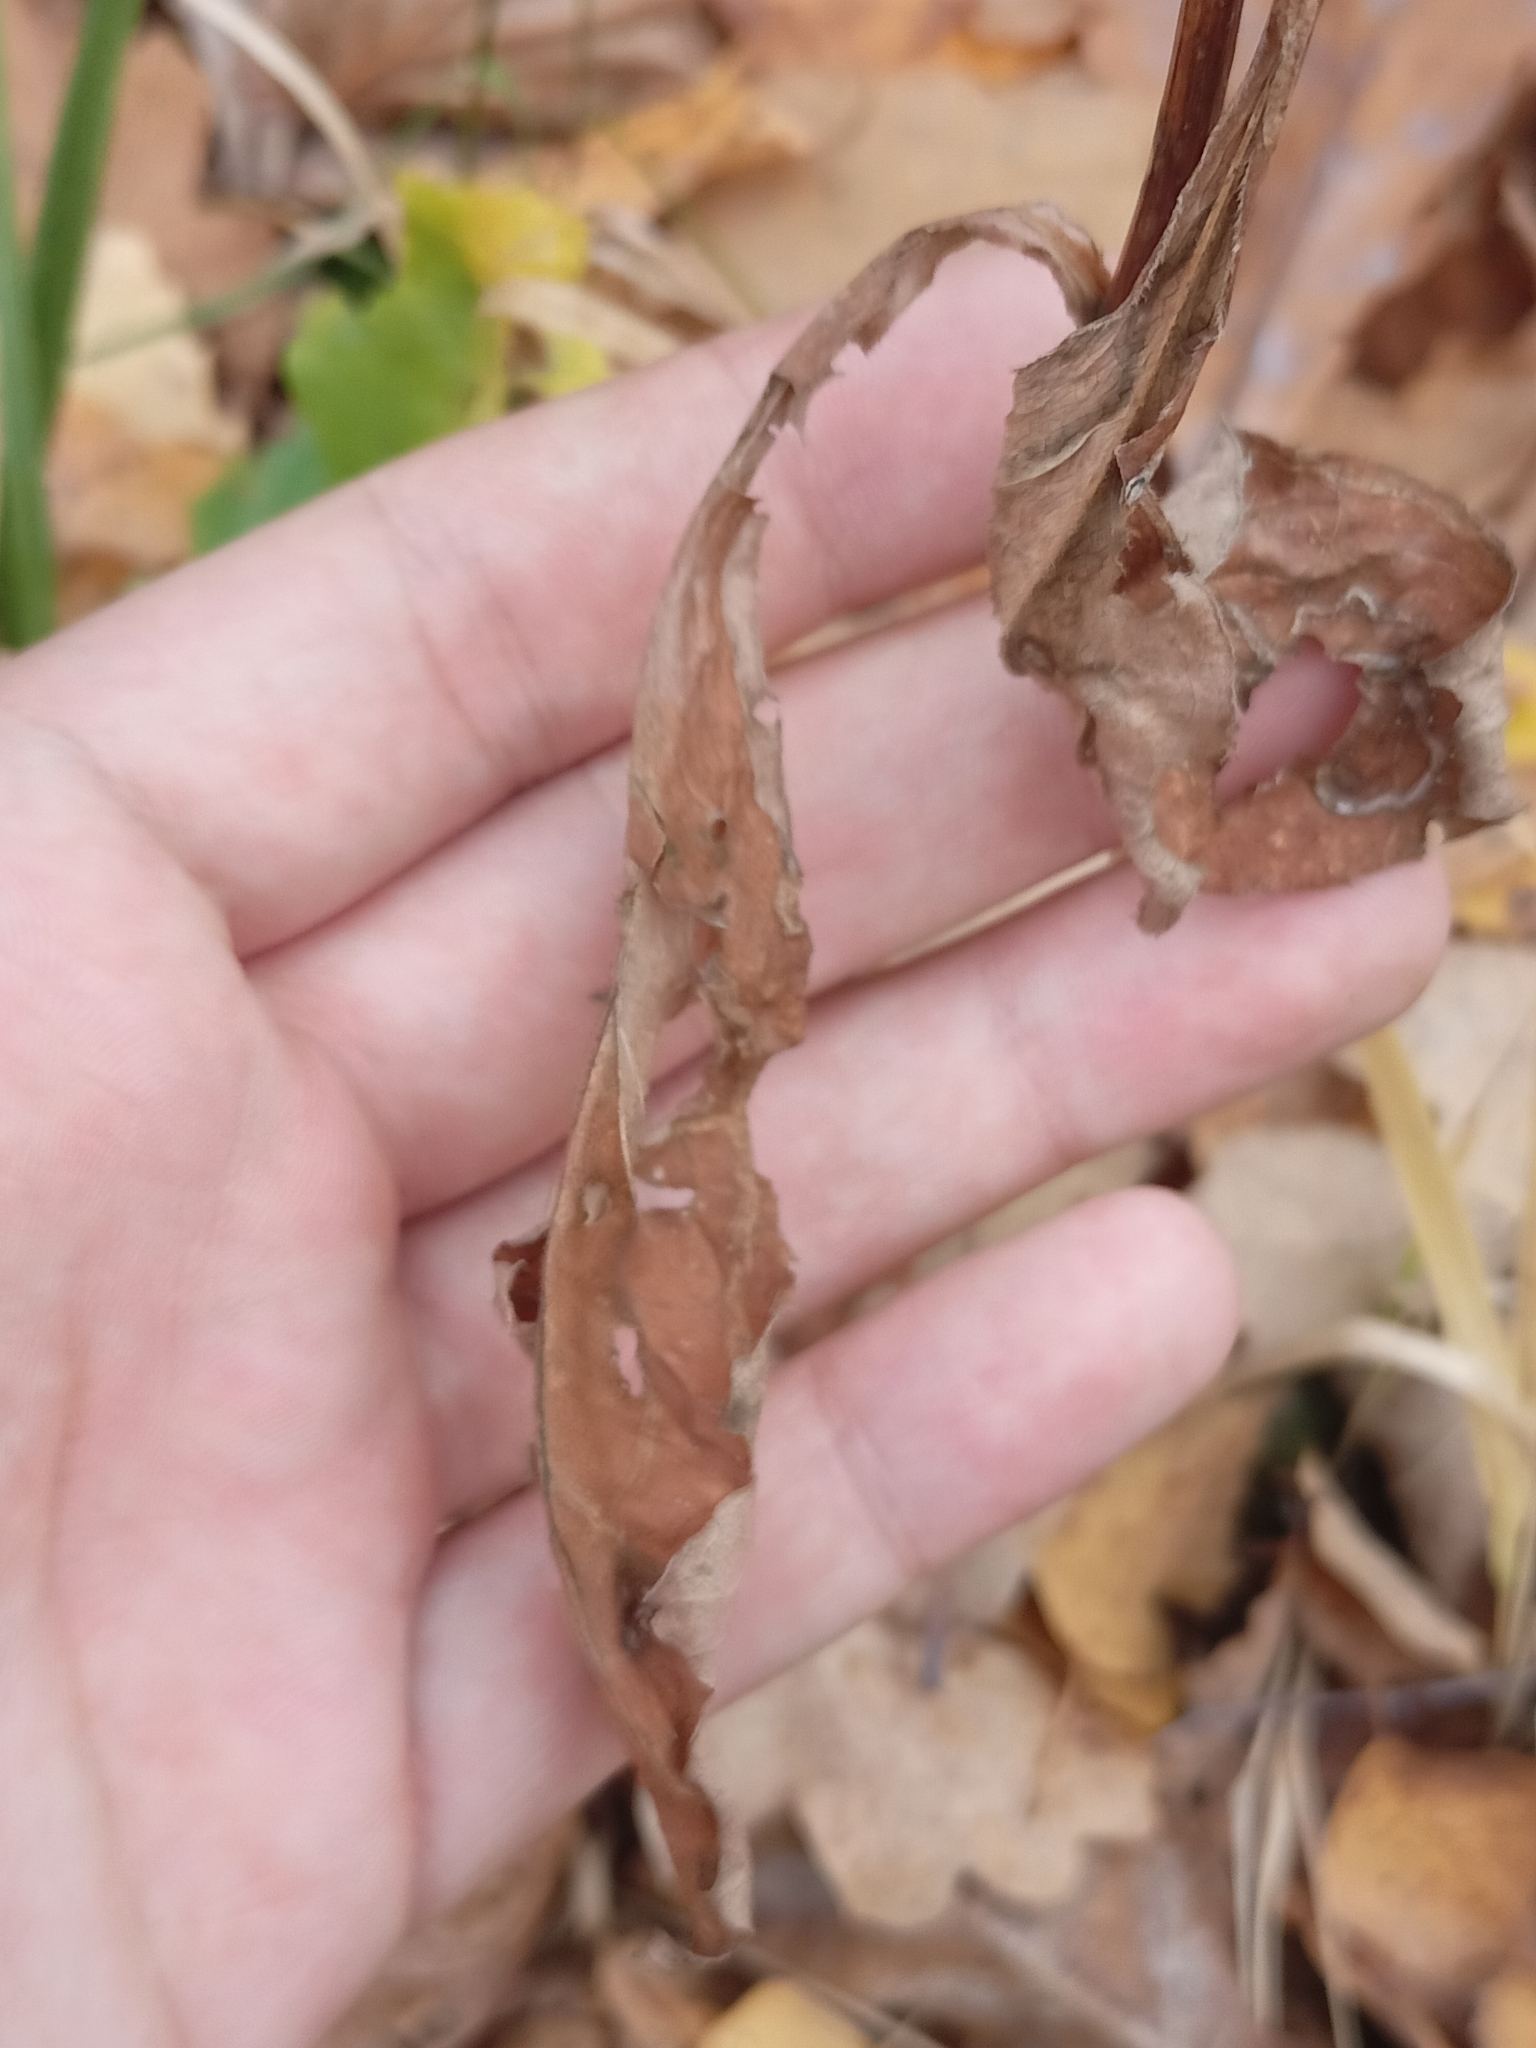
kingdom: Plantae
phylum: Tracheophyta
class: Magnoliopsida
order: Asterales
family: Asteraceae
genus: Solidago
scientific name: Solidago virgaurea
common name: Goldenrod
